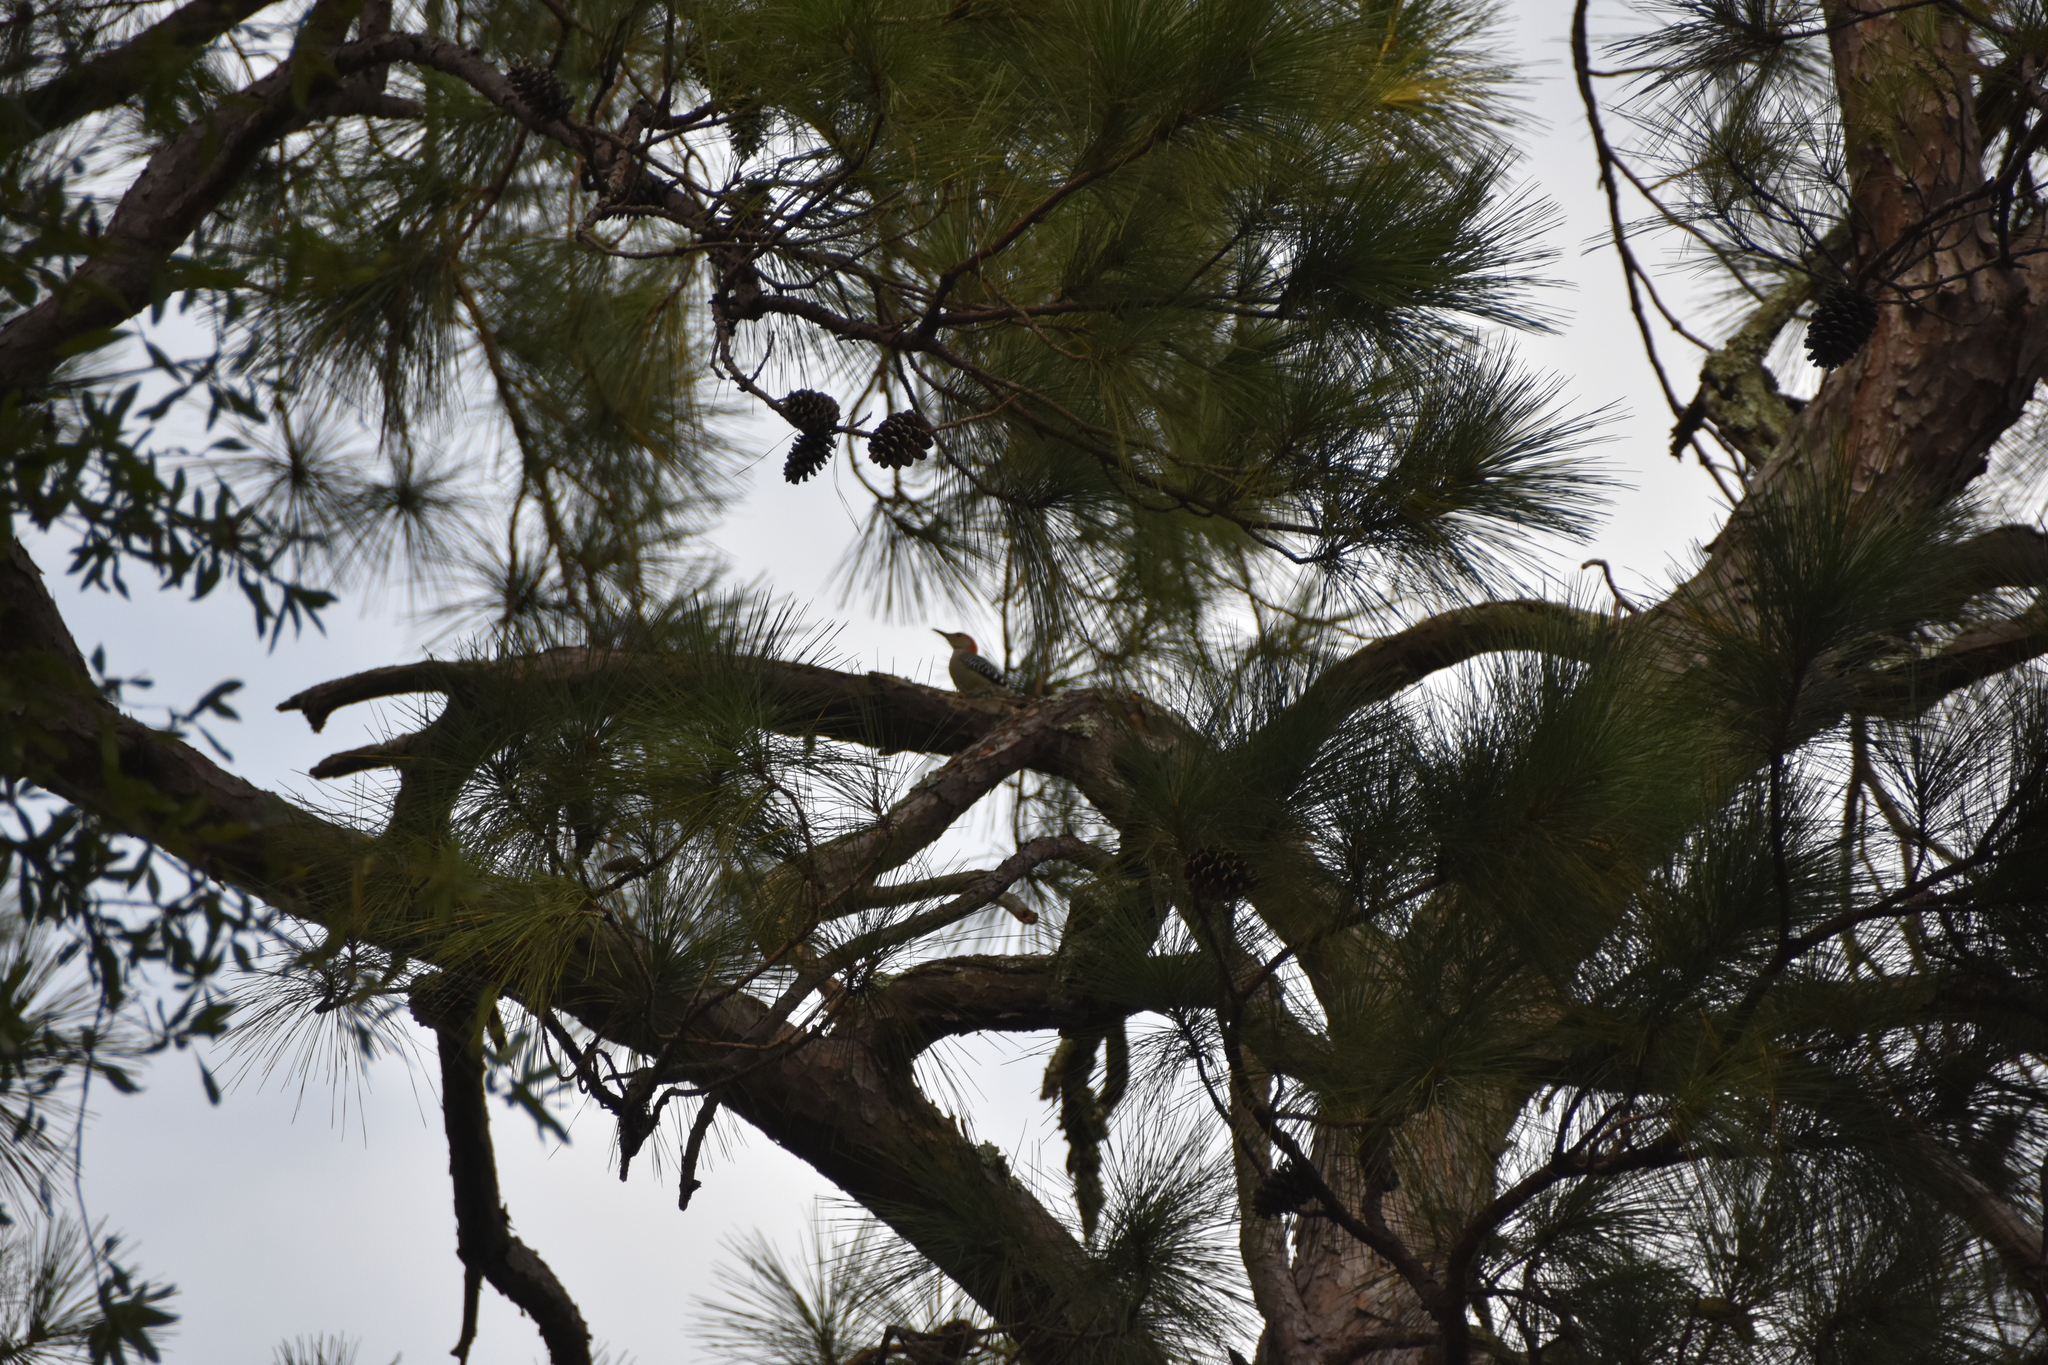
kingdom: Animalia
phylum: Chordata
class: Aves
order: Piciformes
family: Picidae
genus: Melanerpes
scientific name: Melanerpes carolinus
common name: Red-bellied woodpecker
